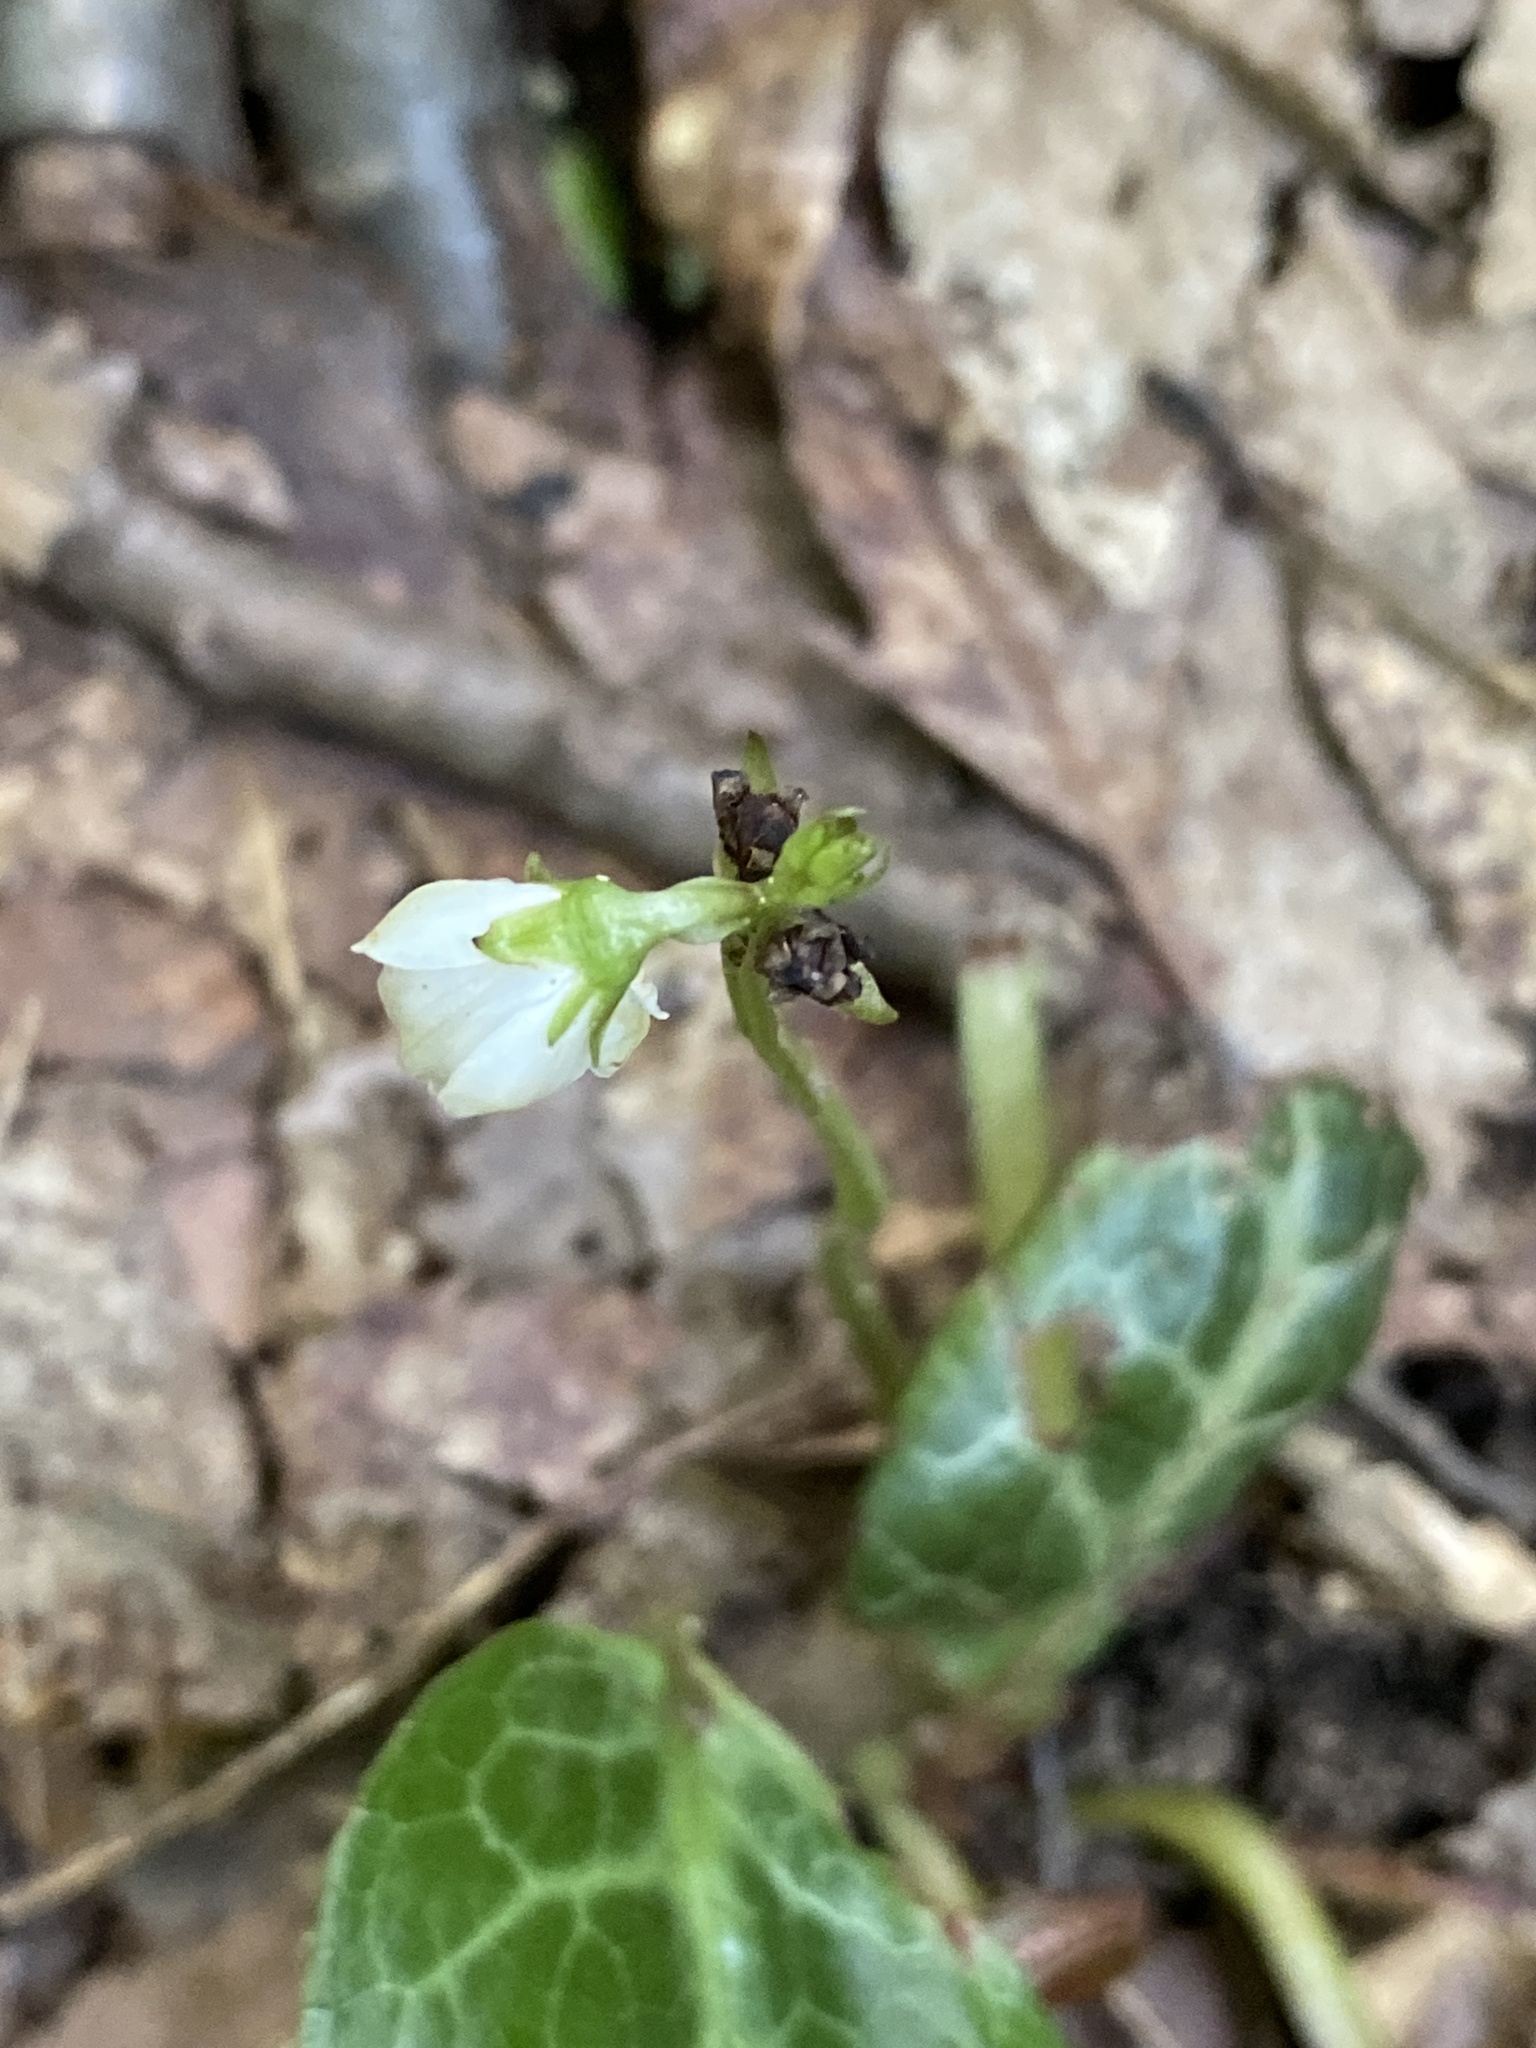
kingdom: Plantae
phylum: Tracheophyta
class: Magnoliopsida
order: Ericales
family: Ericaceae
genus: Pyrola
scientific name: Pyrola americana
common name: American wintergreen
